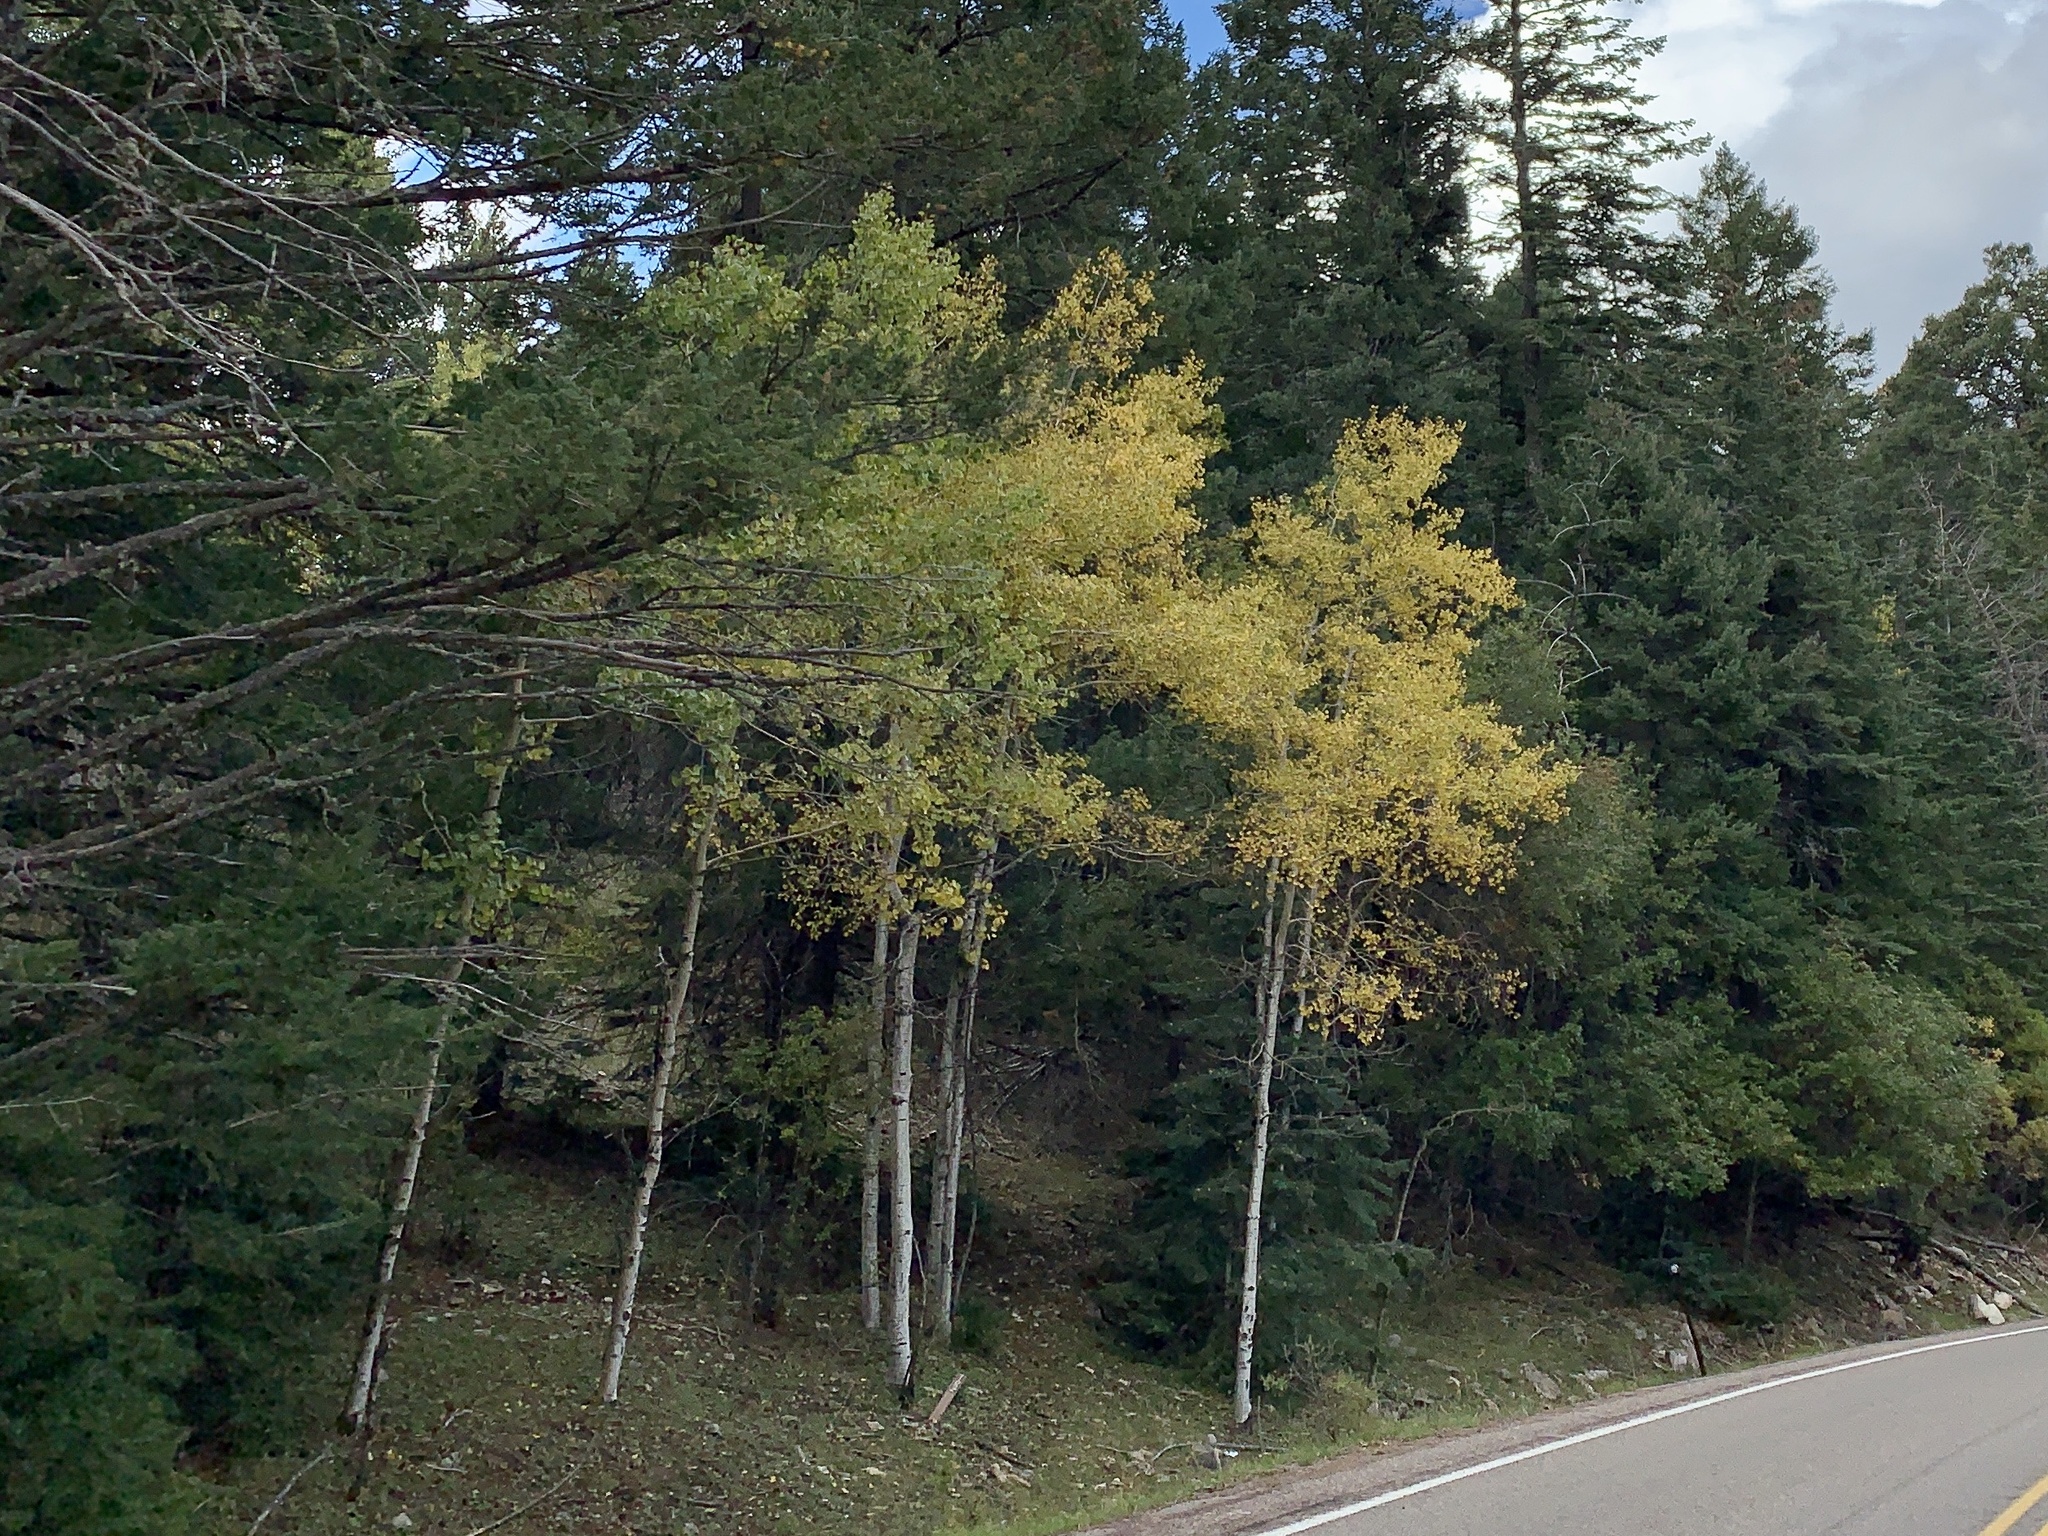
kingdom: Plantae
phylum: Tracheophyta
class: Magnoliopsida
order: Malpighiales
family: Salicaceae
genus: Populus
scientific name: Populus tremuloides
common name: Quaking aspen
